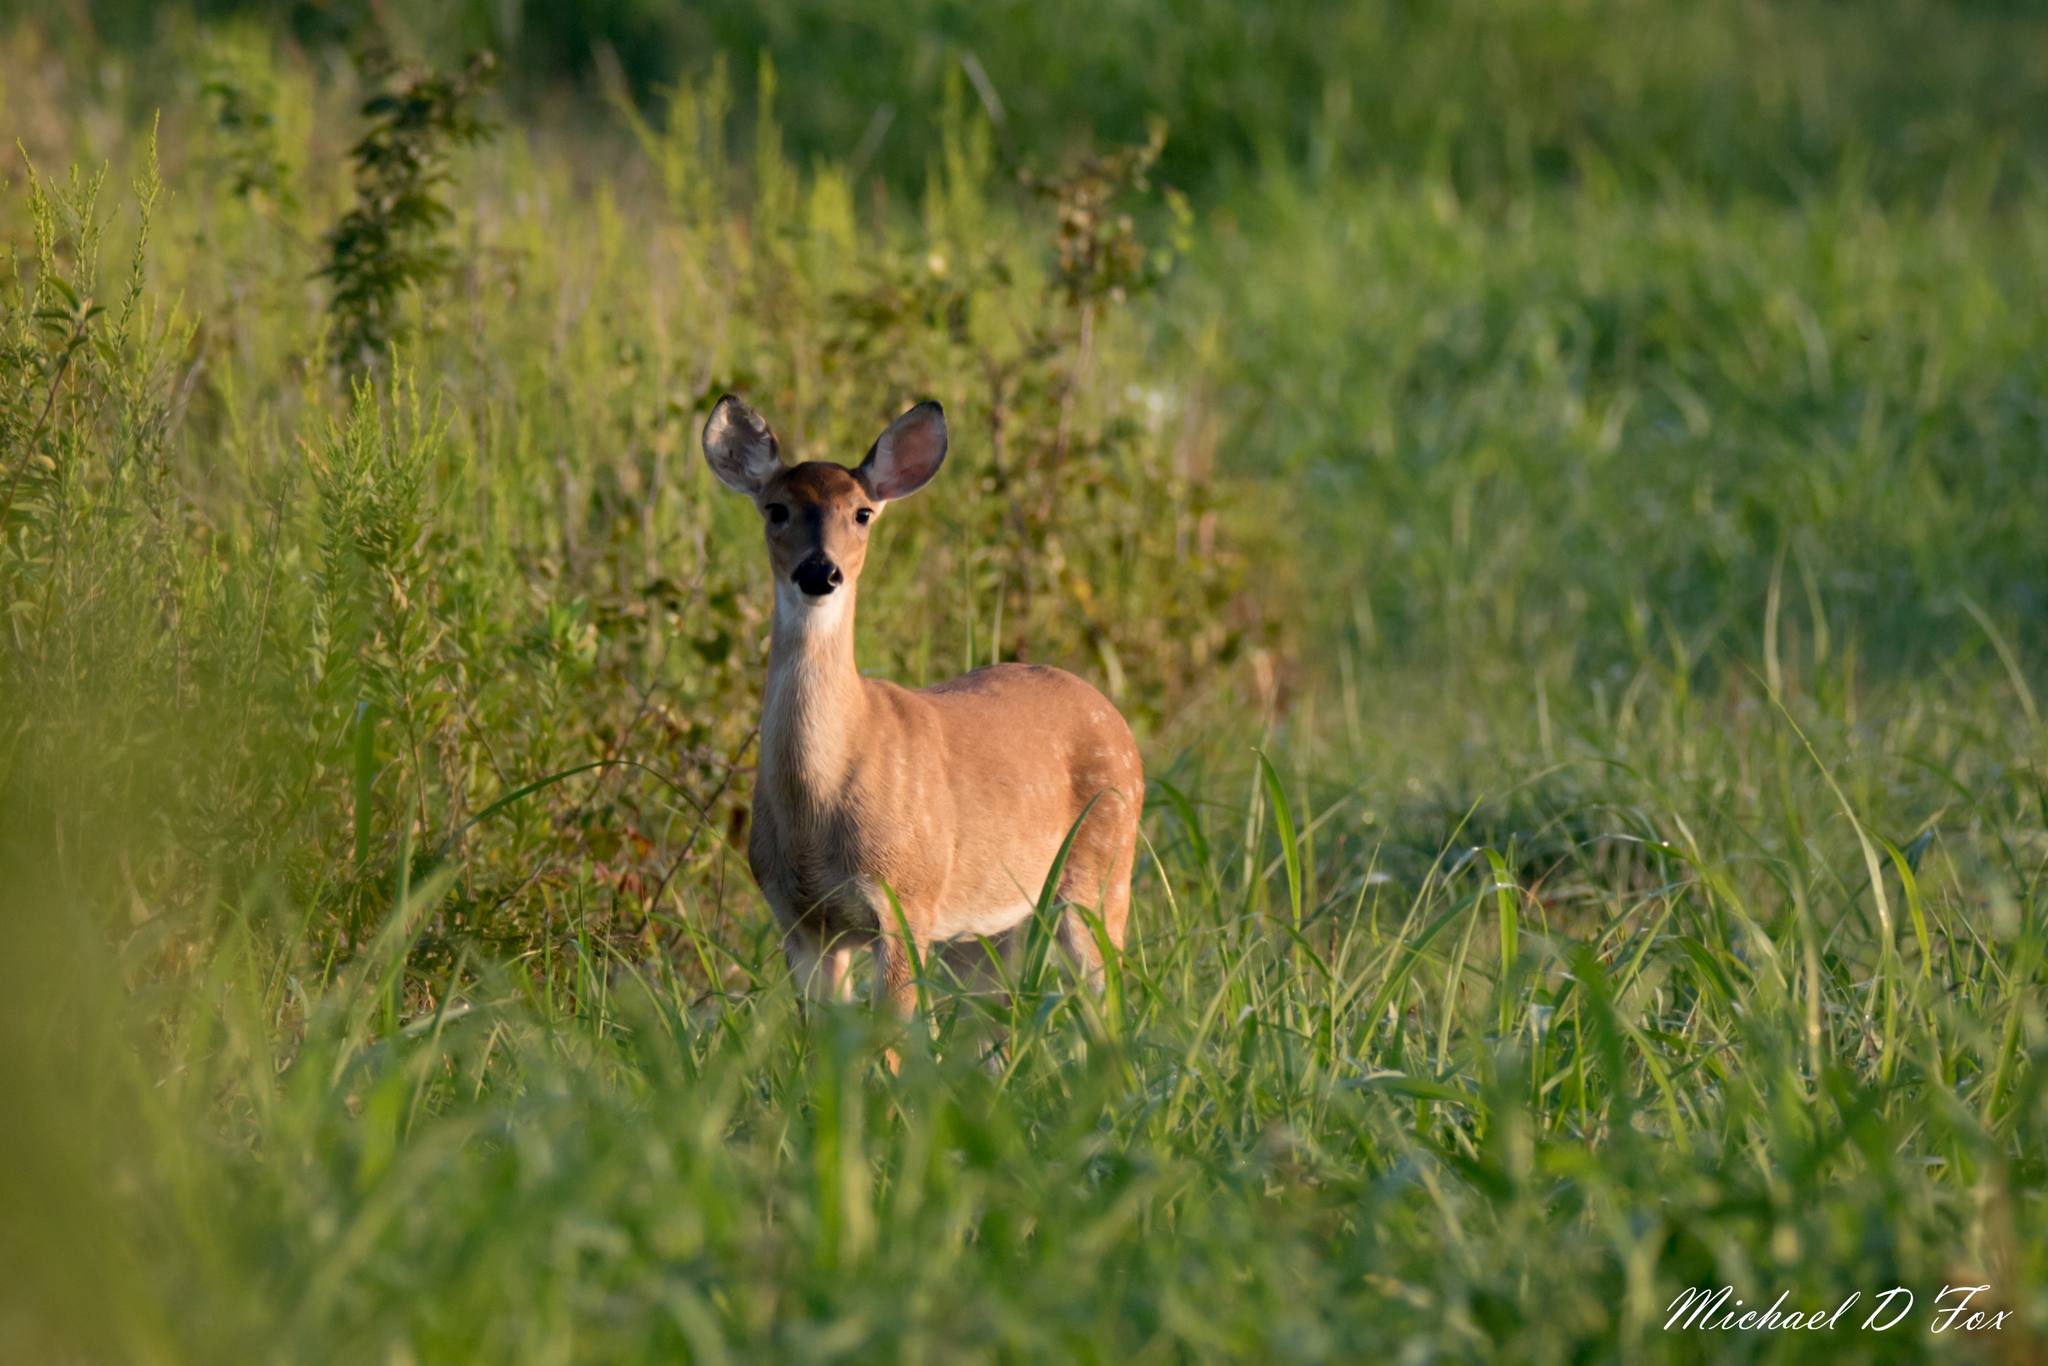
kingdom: Animalia
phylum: Chordata
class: Mammalia
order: Artiodactyla
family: Cervidae
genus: Odocoileus
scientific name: Odocoileus virginianus
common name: White-tailed deer
